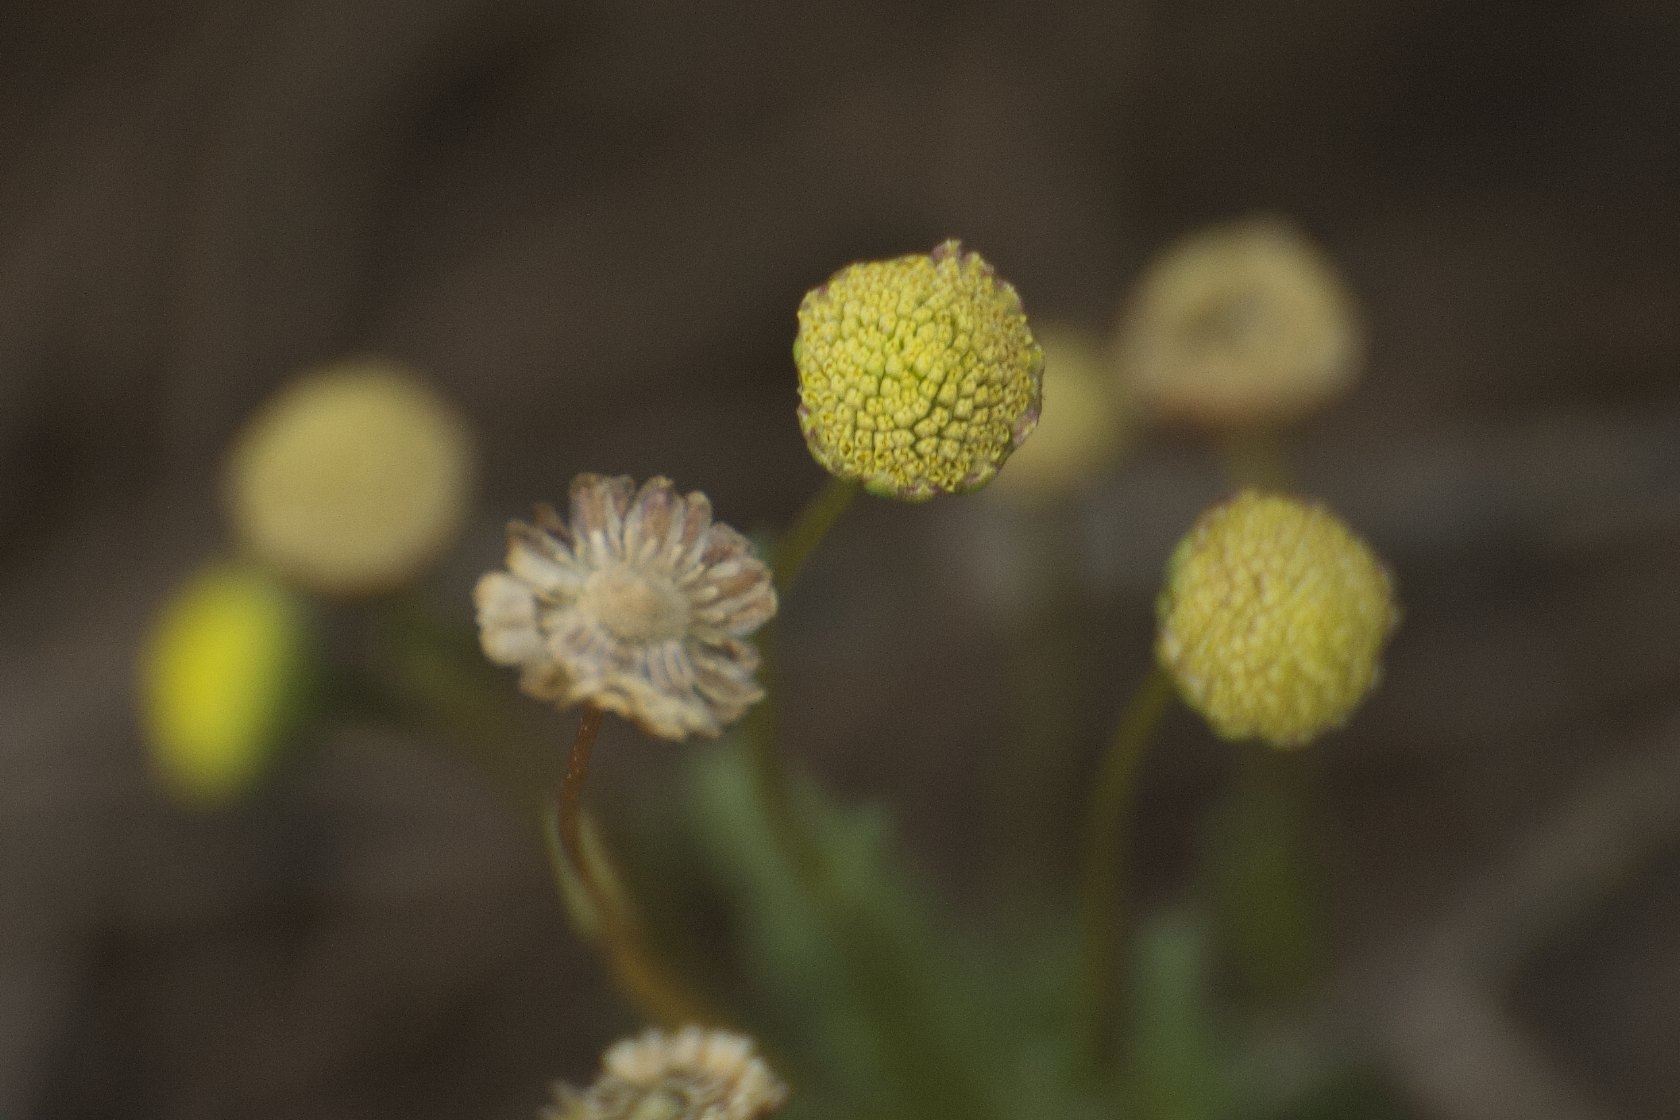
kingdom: Plantae
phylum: Tracheophyta
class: Magnoliopsida
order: Asterales
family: Asteraceae
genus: Cotula
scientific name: Cotula coronopifolia
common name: Buttonweed
